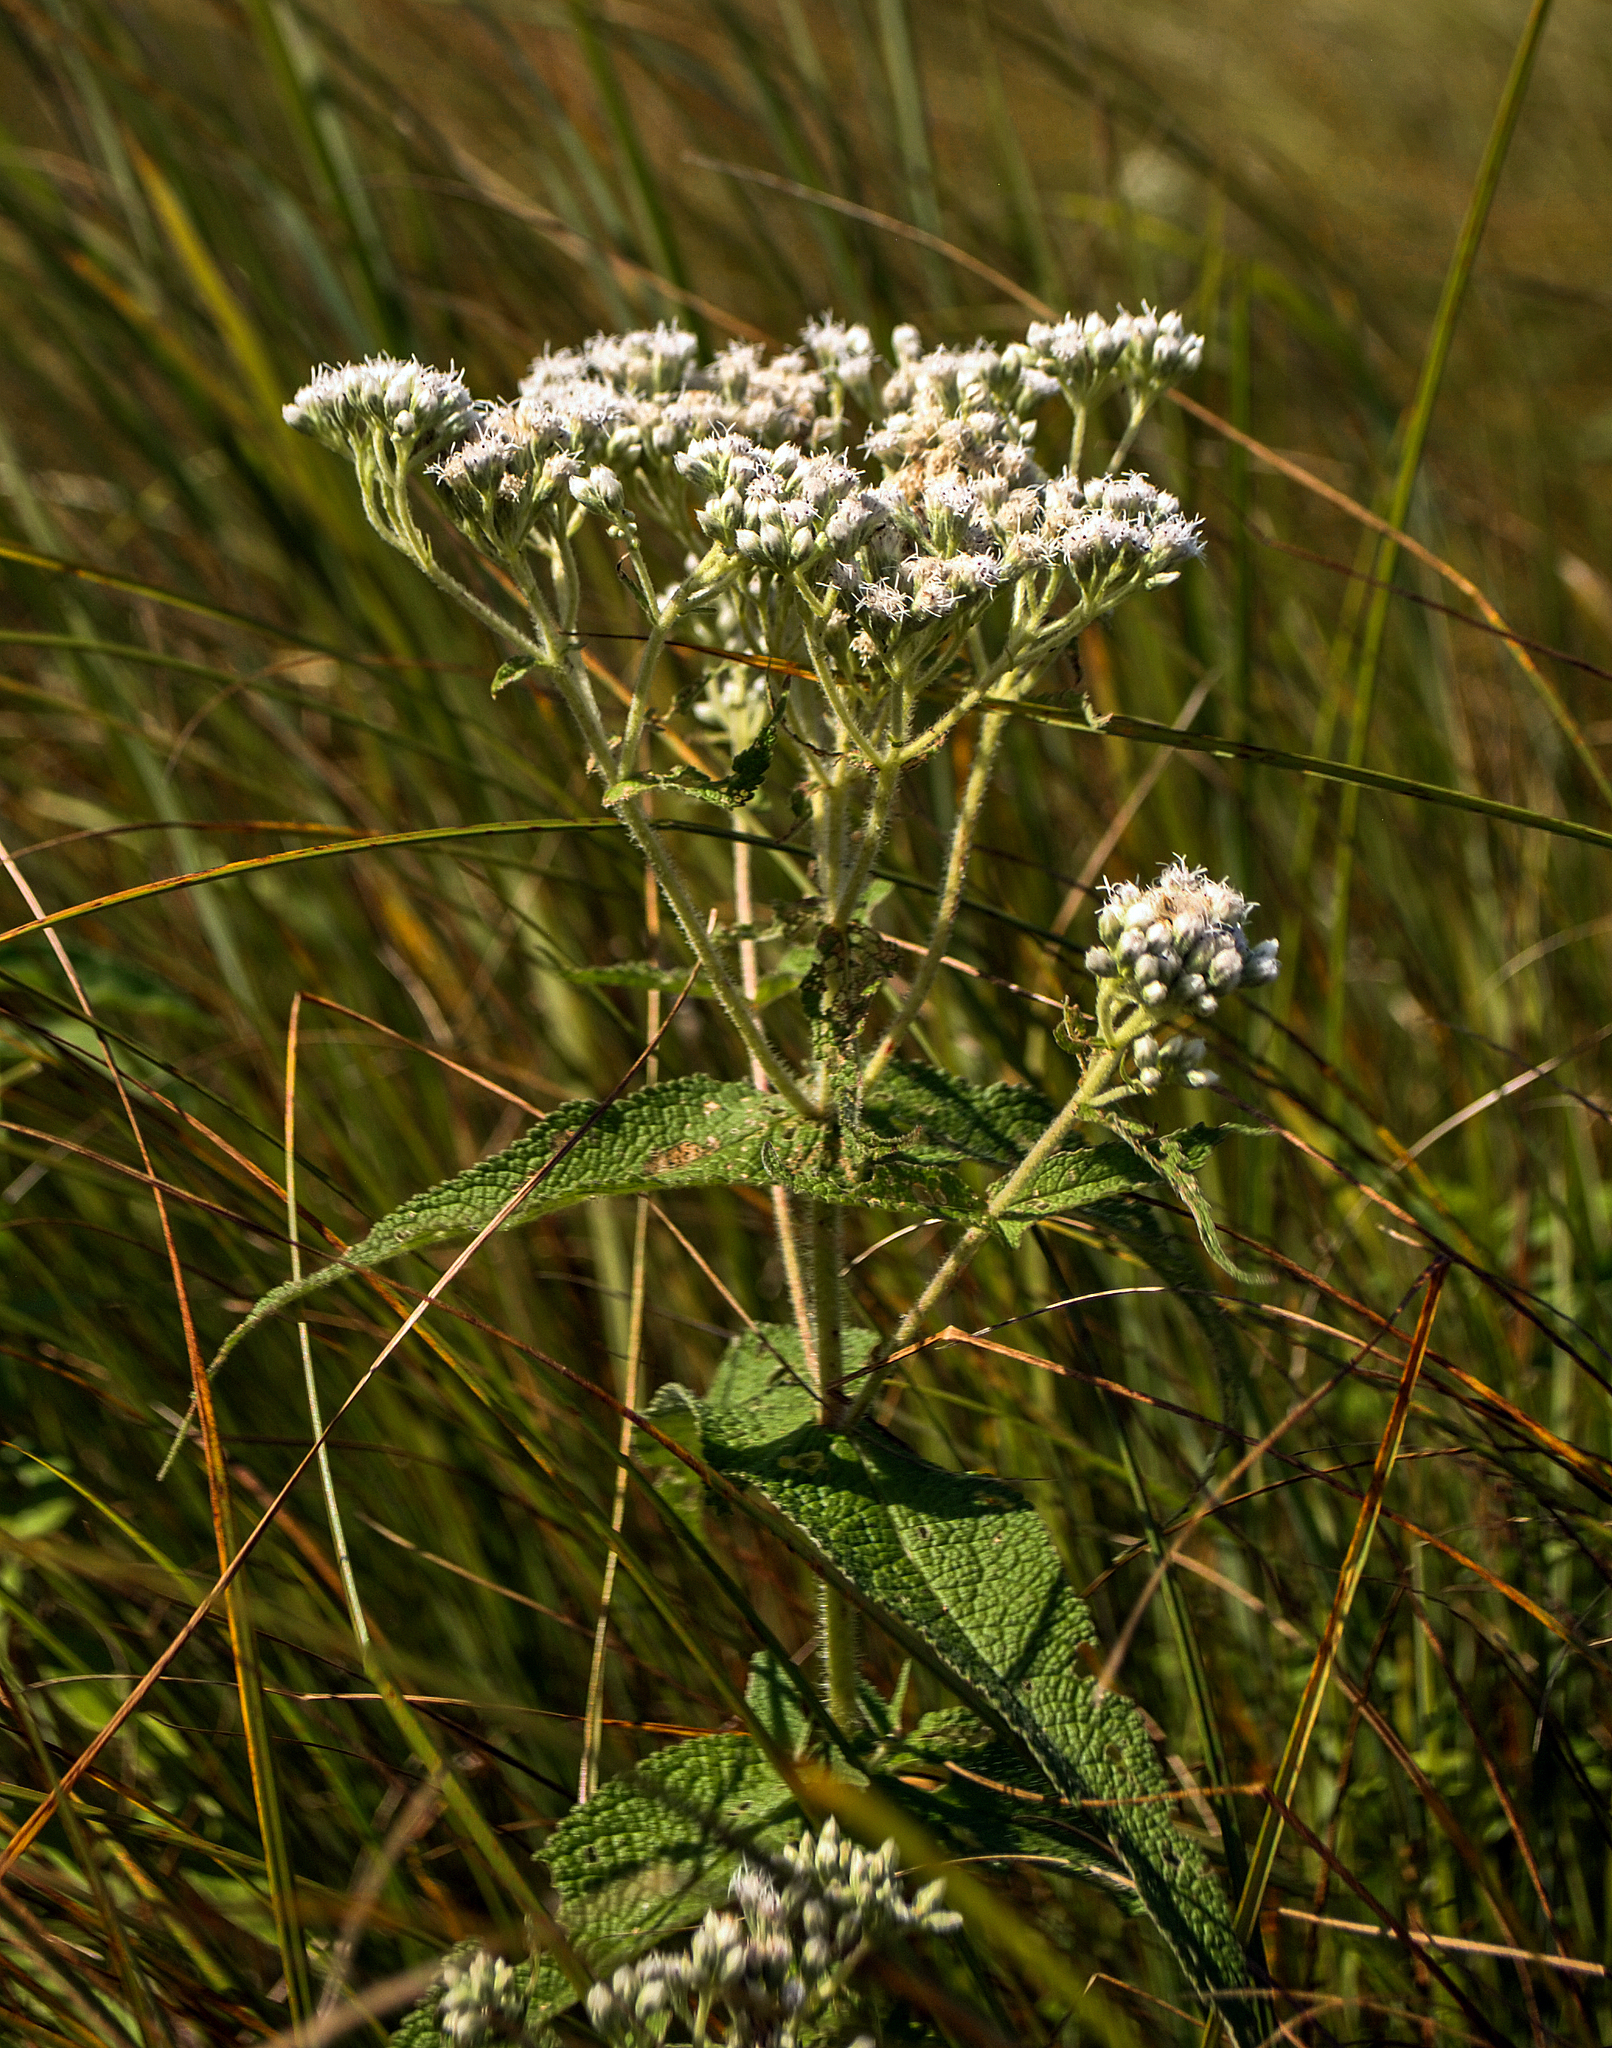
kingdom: Plantae
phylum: Tracheophyta
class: Magnoliopsida
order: Asterales
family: Asteraceae
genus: Eupatorium
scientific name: Eupatorium perfoliatum
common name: Boneset
